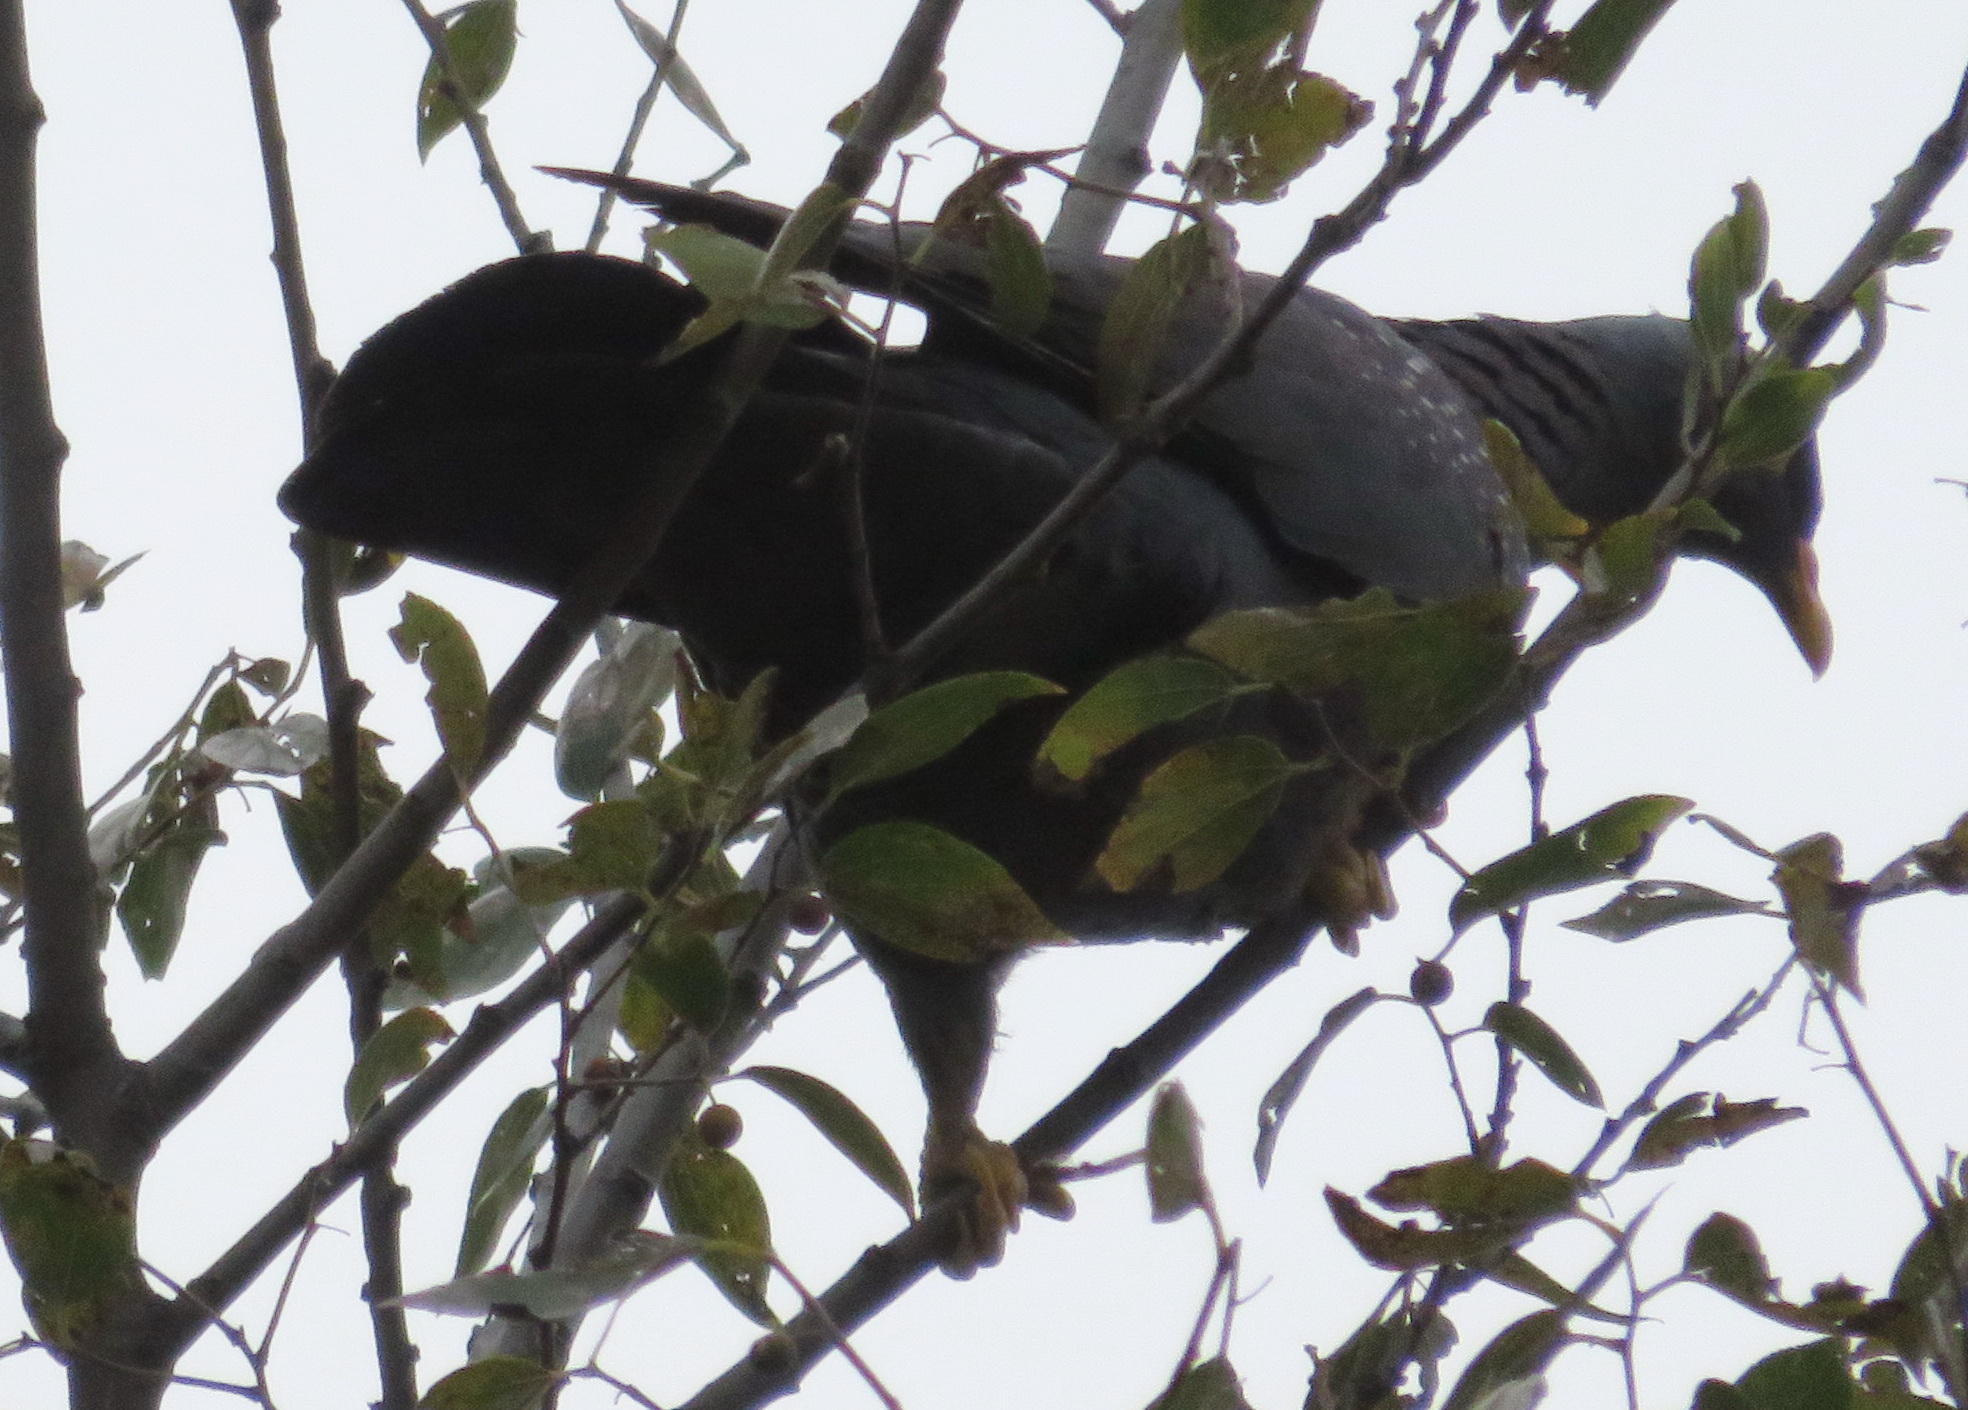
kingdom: Animalia
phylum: Chordata
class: Aves
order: Columbiformes
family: Columbidae
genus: Columba
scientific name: Columba arquatrix
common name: African olive pigeon
